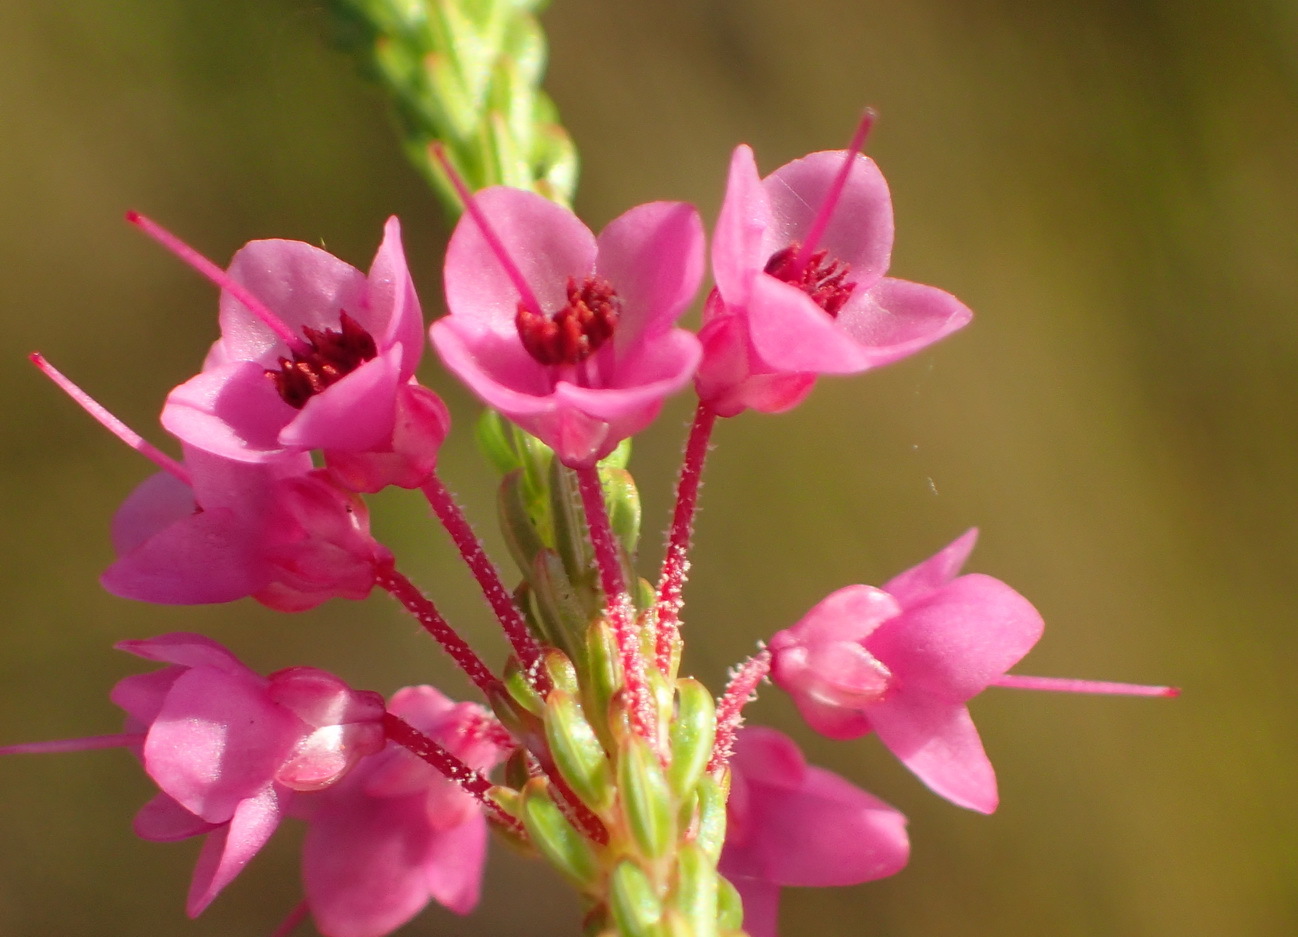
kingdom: Plantae
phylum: Tracheophyta
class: Magnoliopsida
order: Ericales
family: Ericaceae
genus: Erica
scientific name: Erica seriphiifolia
